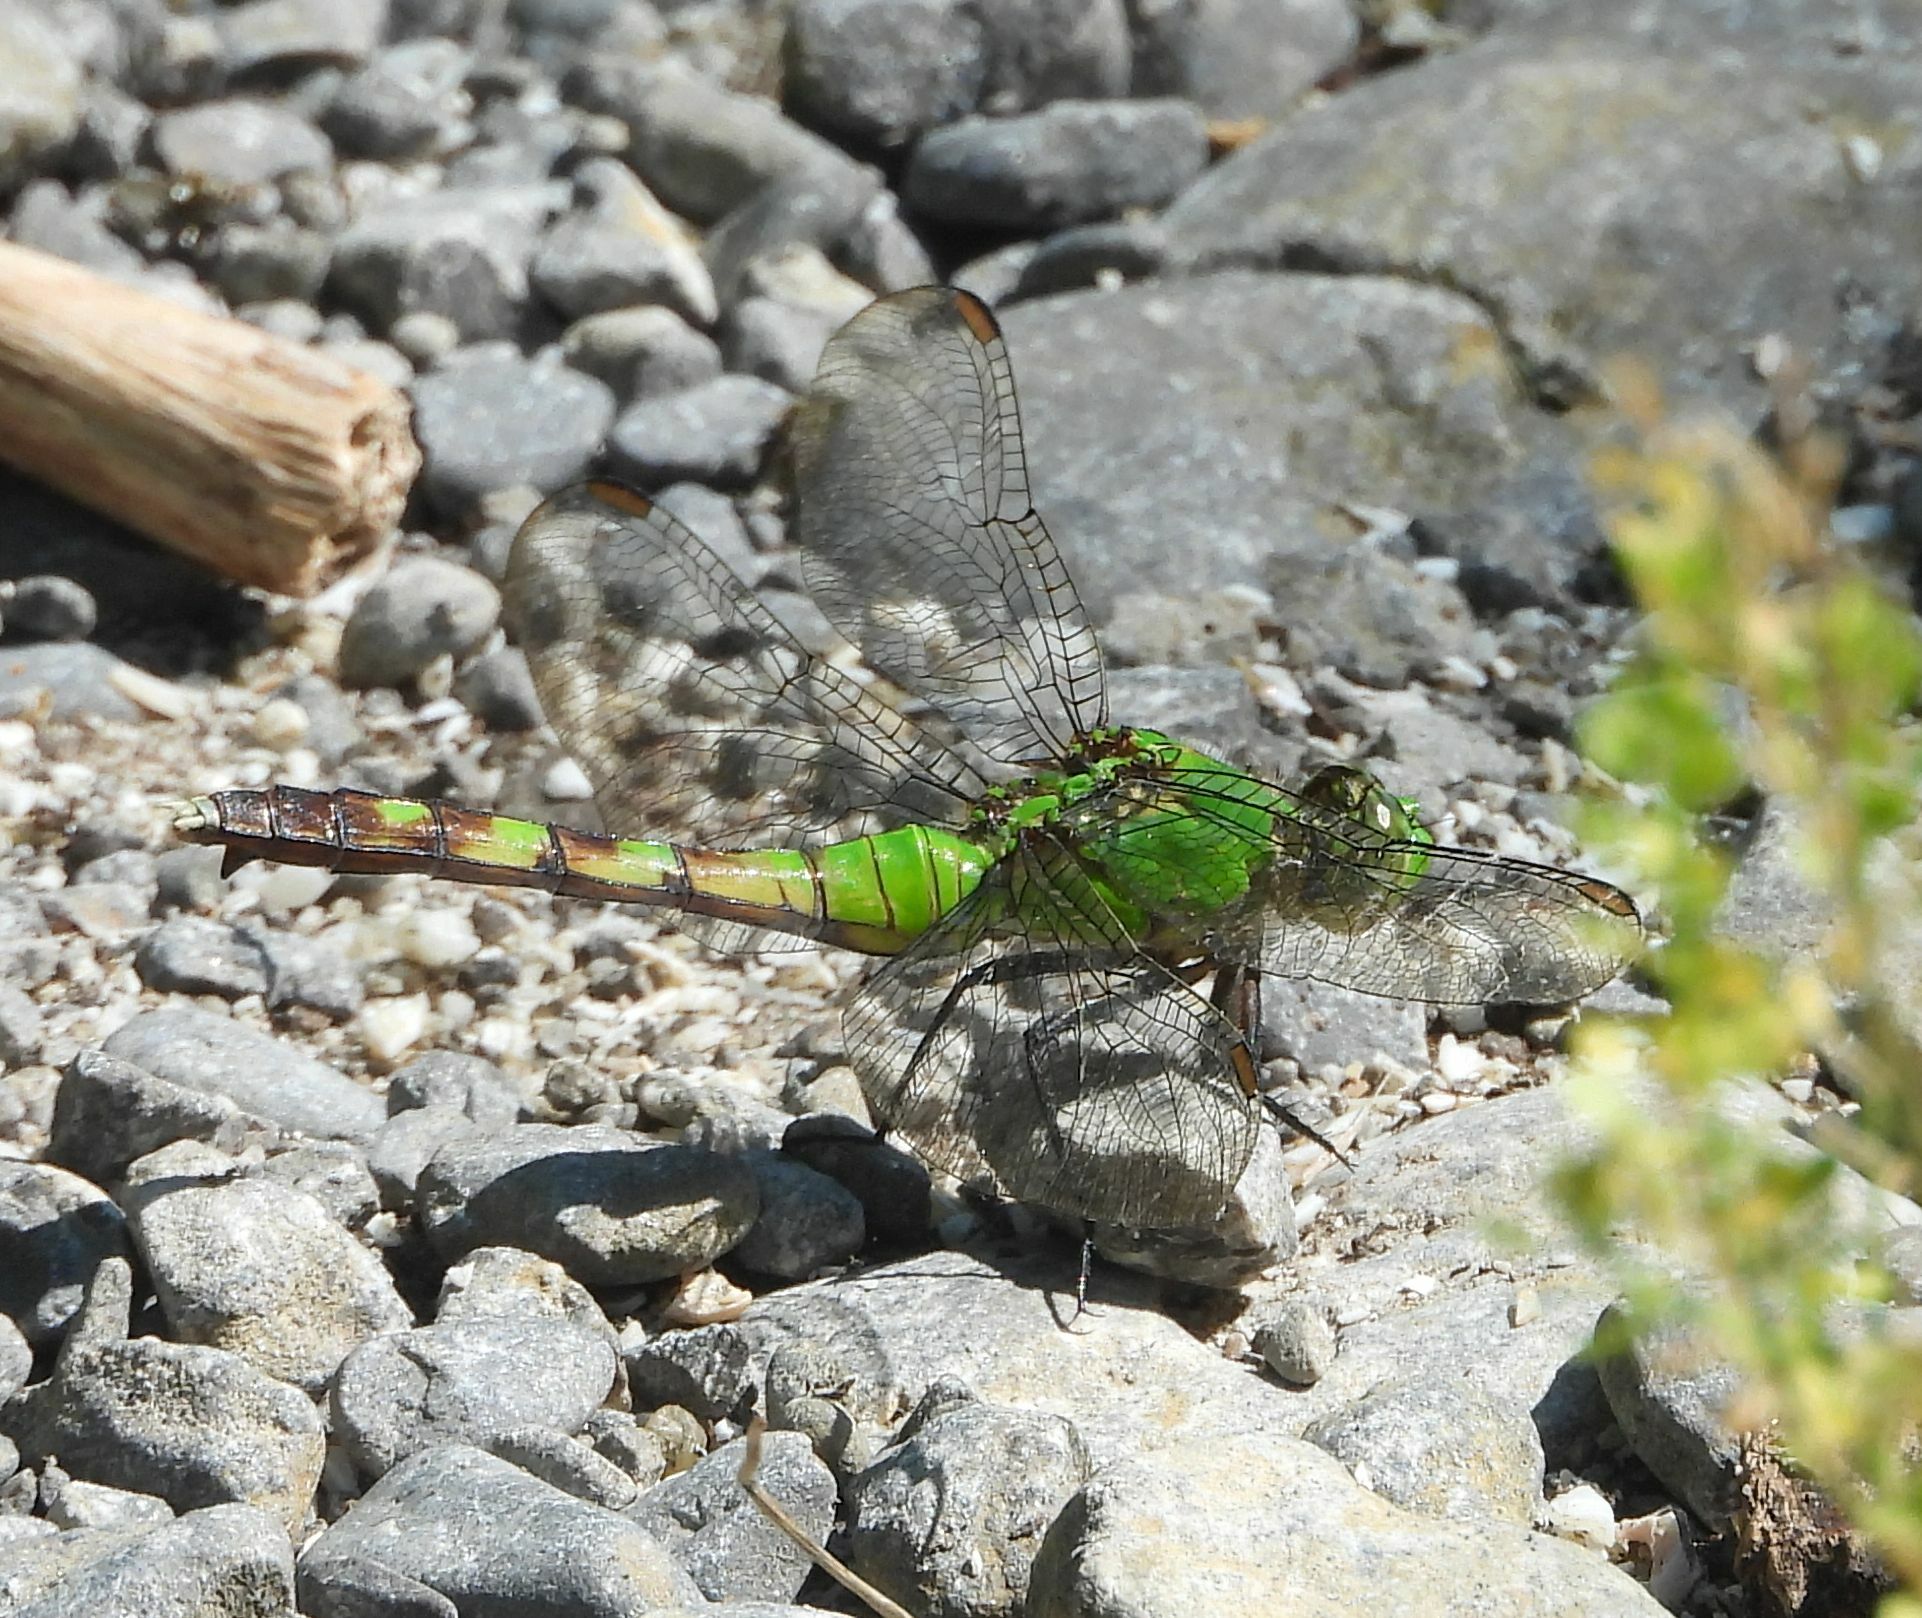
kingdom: Animalia
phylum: Arthropoda
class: Insecta
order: Odonata
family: Libellulidae
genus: Erythemis
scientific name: Erythemis simplicicollis
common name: Eastern pondhawk
